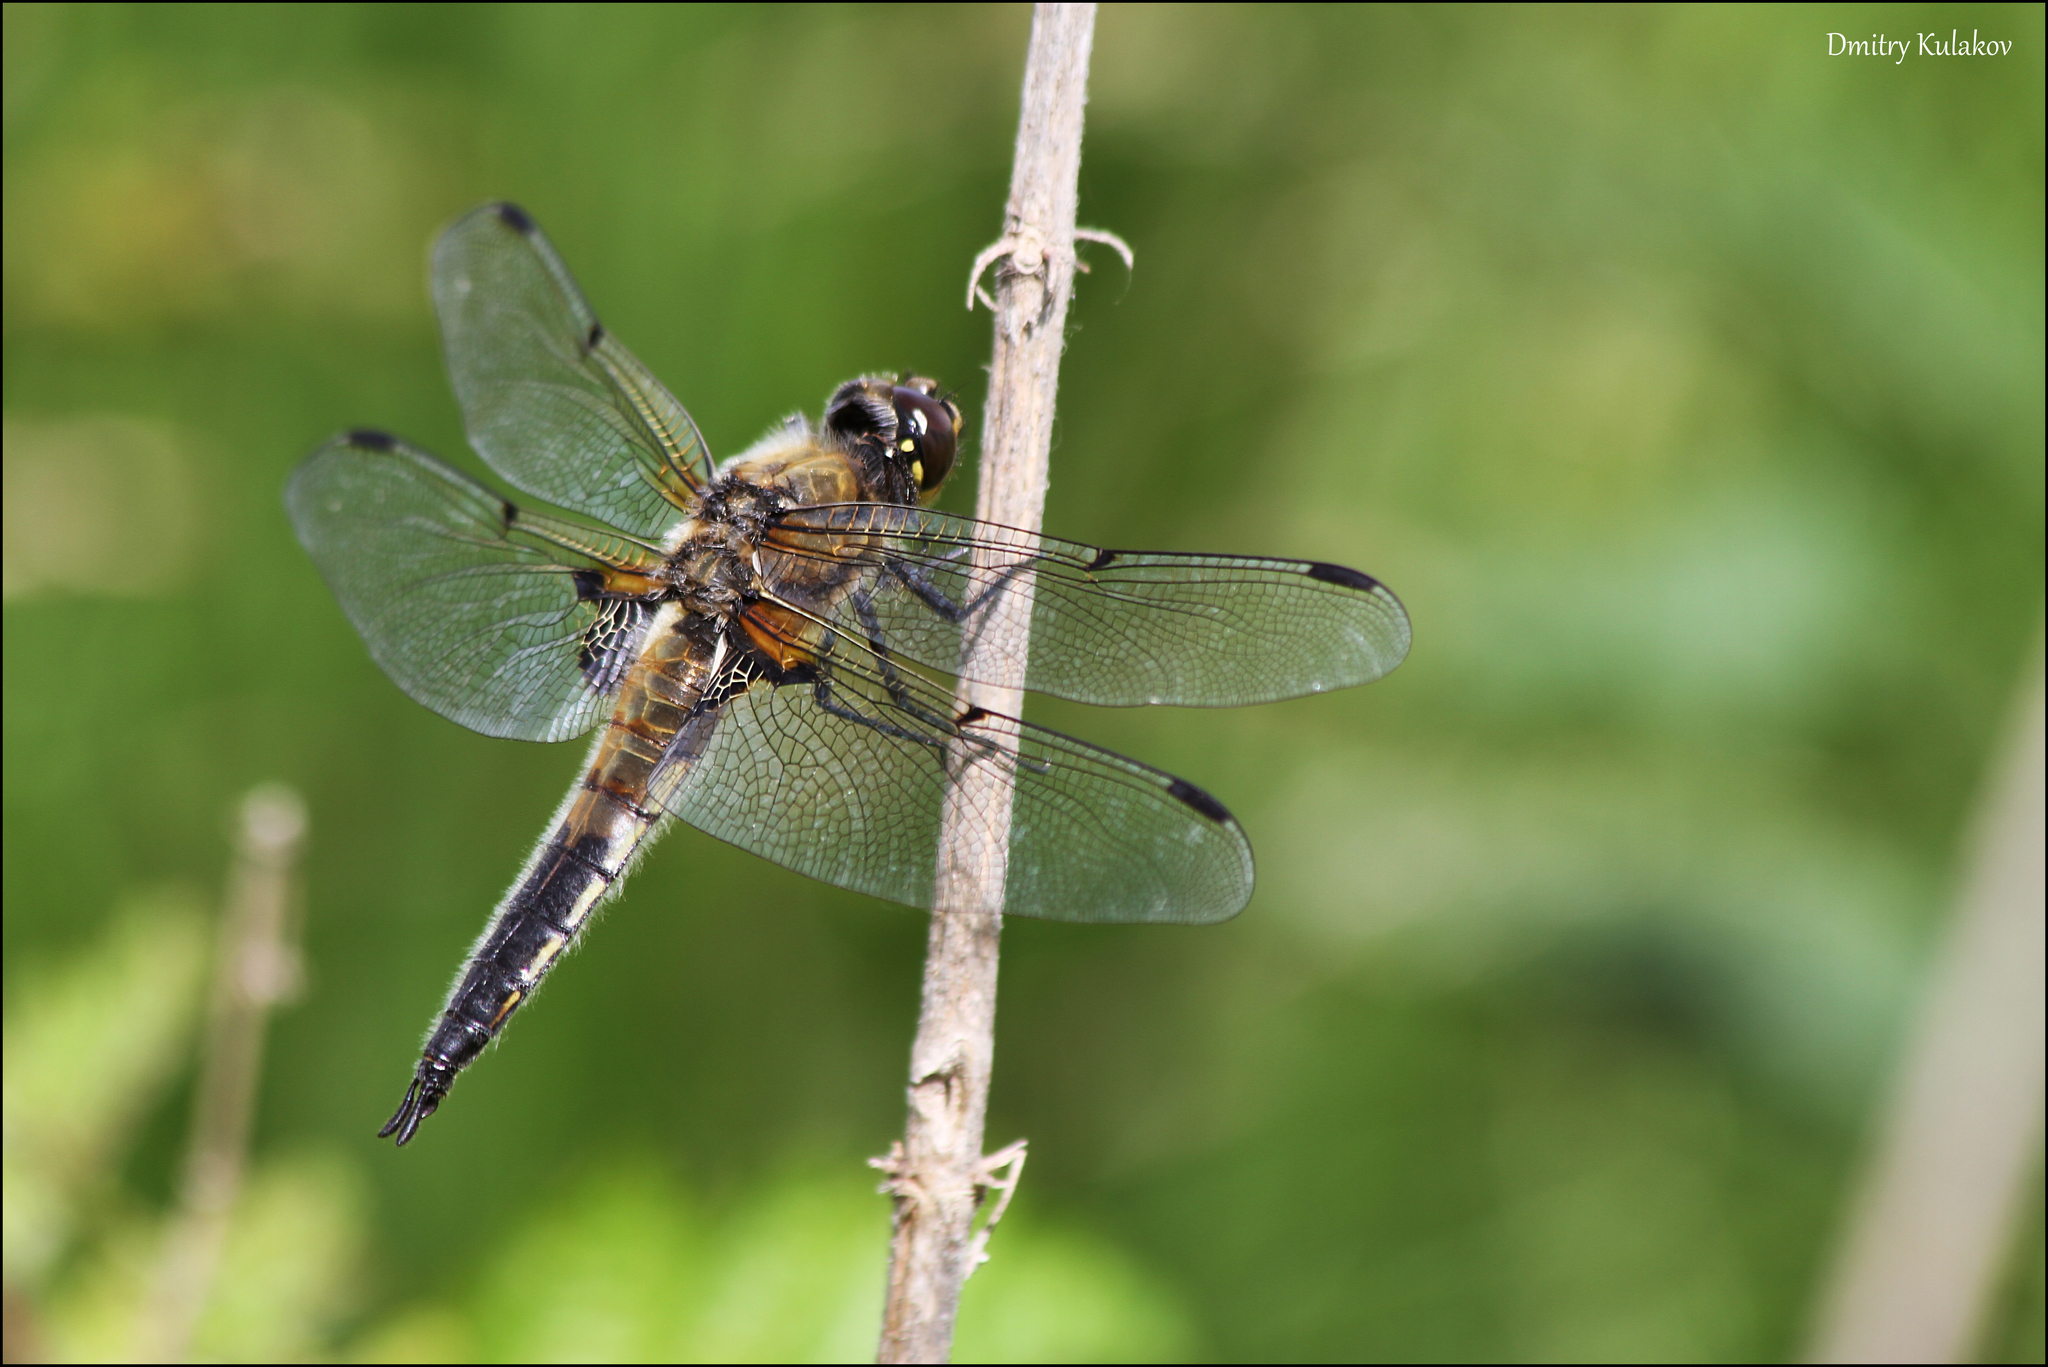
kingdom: Animalia
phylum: Arthropoda
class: Insecta
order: Odonata
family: Libellulidae
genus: Libellula
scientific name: Libellula quadrimaculata
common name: Four-spotted chaser
